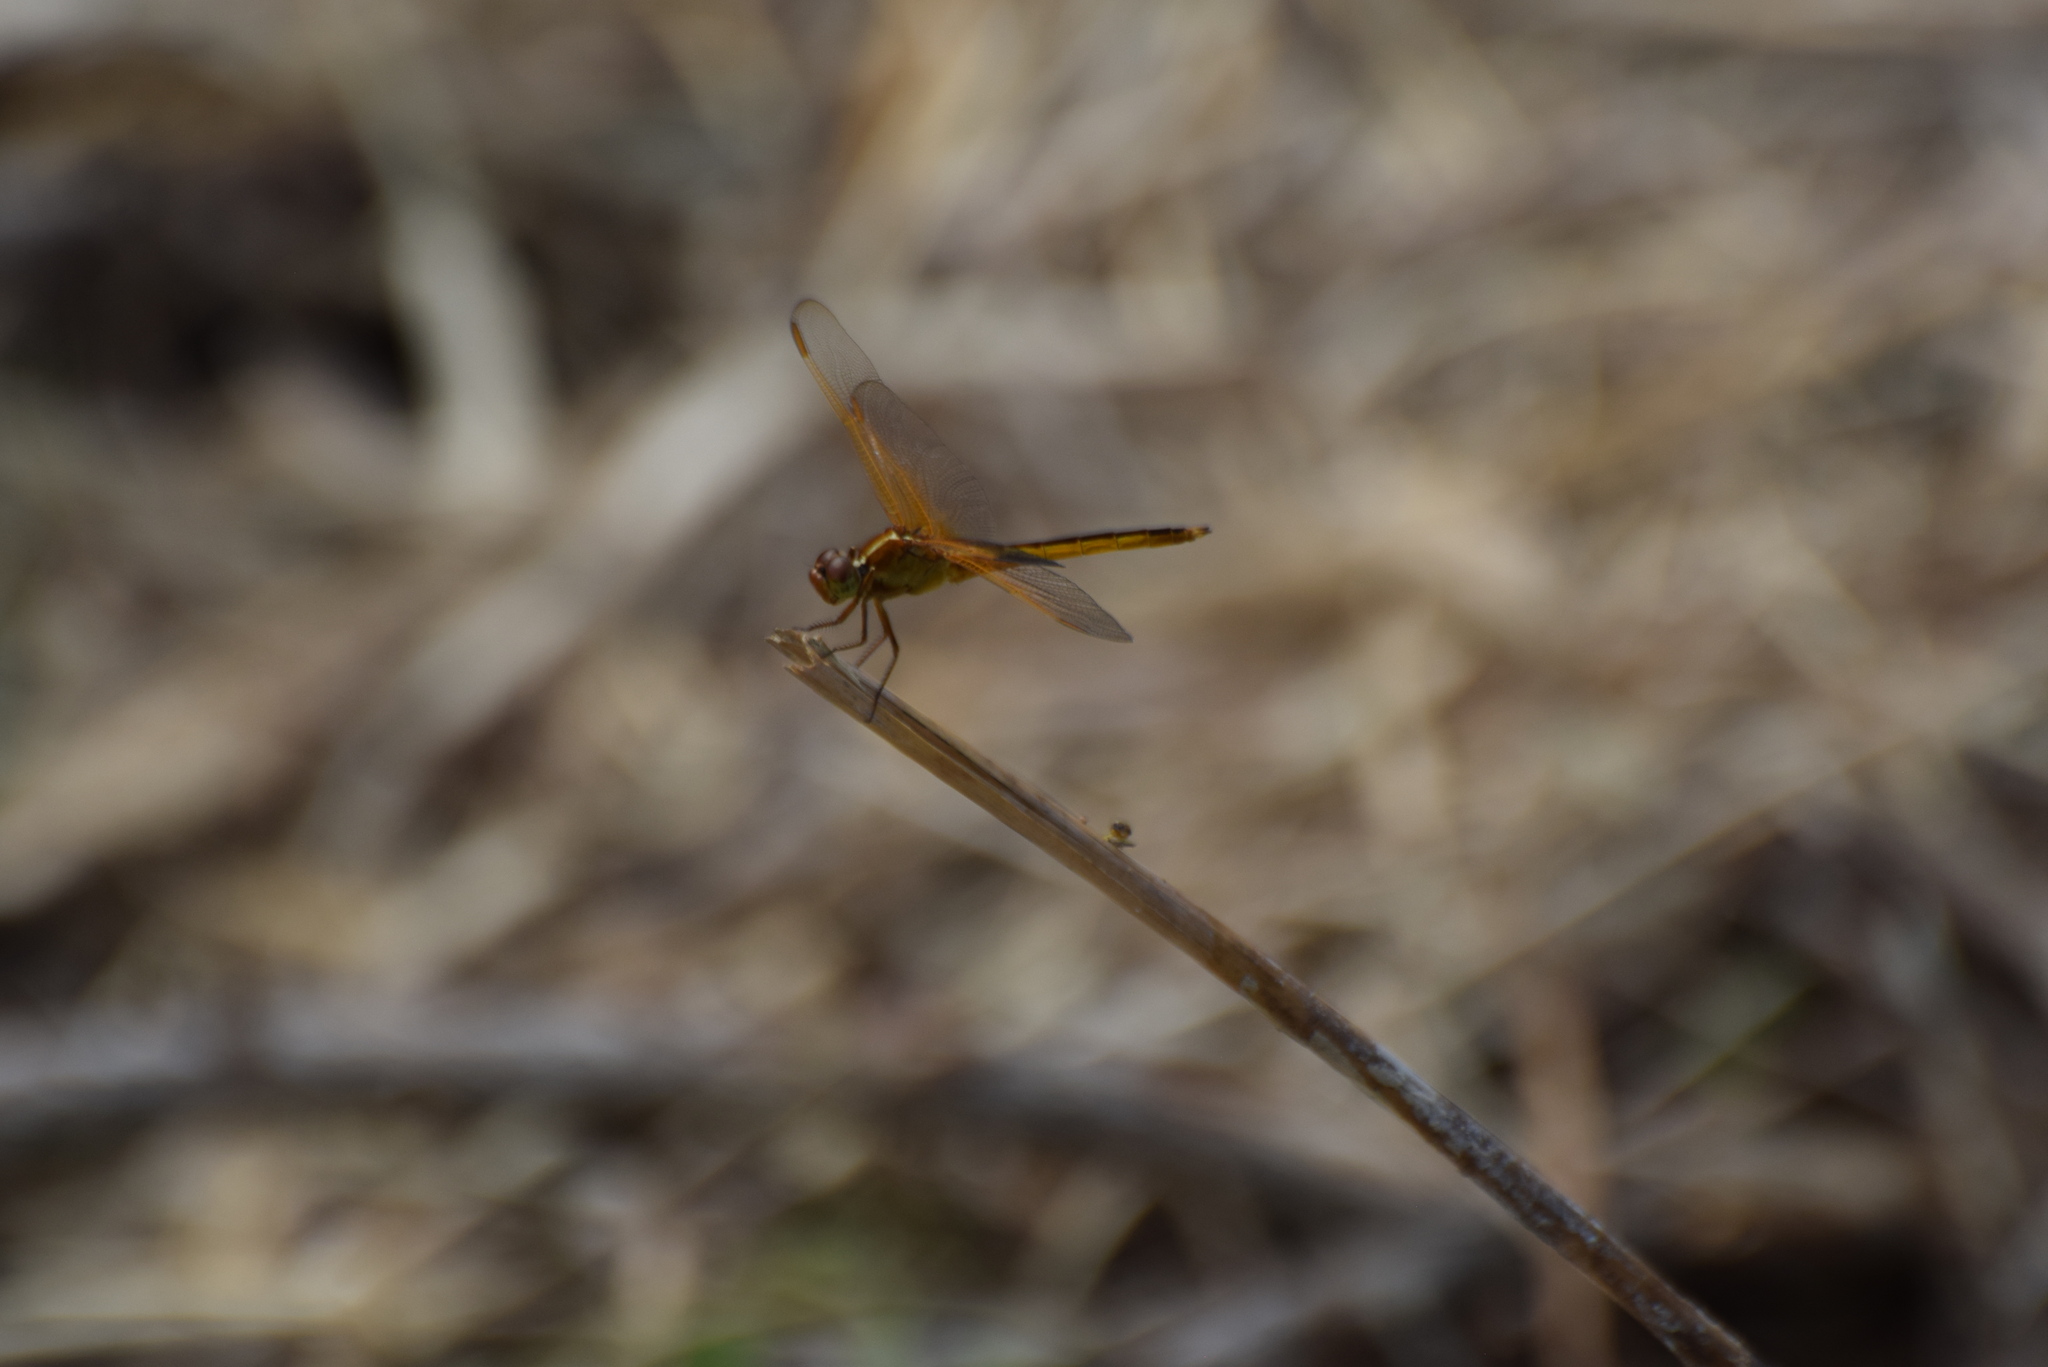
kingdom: Animalia
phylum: Arthropoda
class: Insecta
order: Odonata
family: Libellulidae
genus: Libellula
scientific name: Libellula needhami
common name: Needham's skimmer
